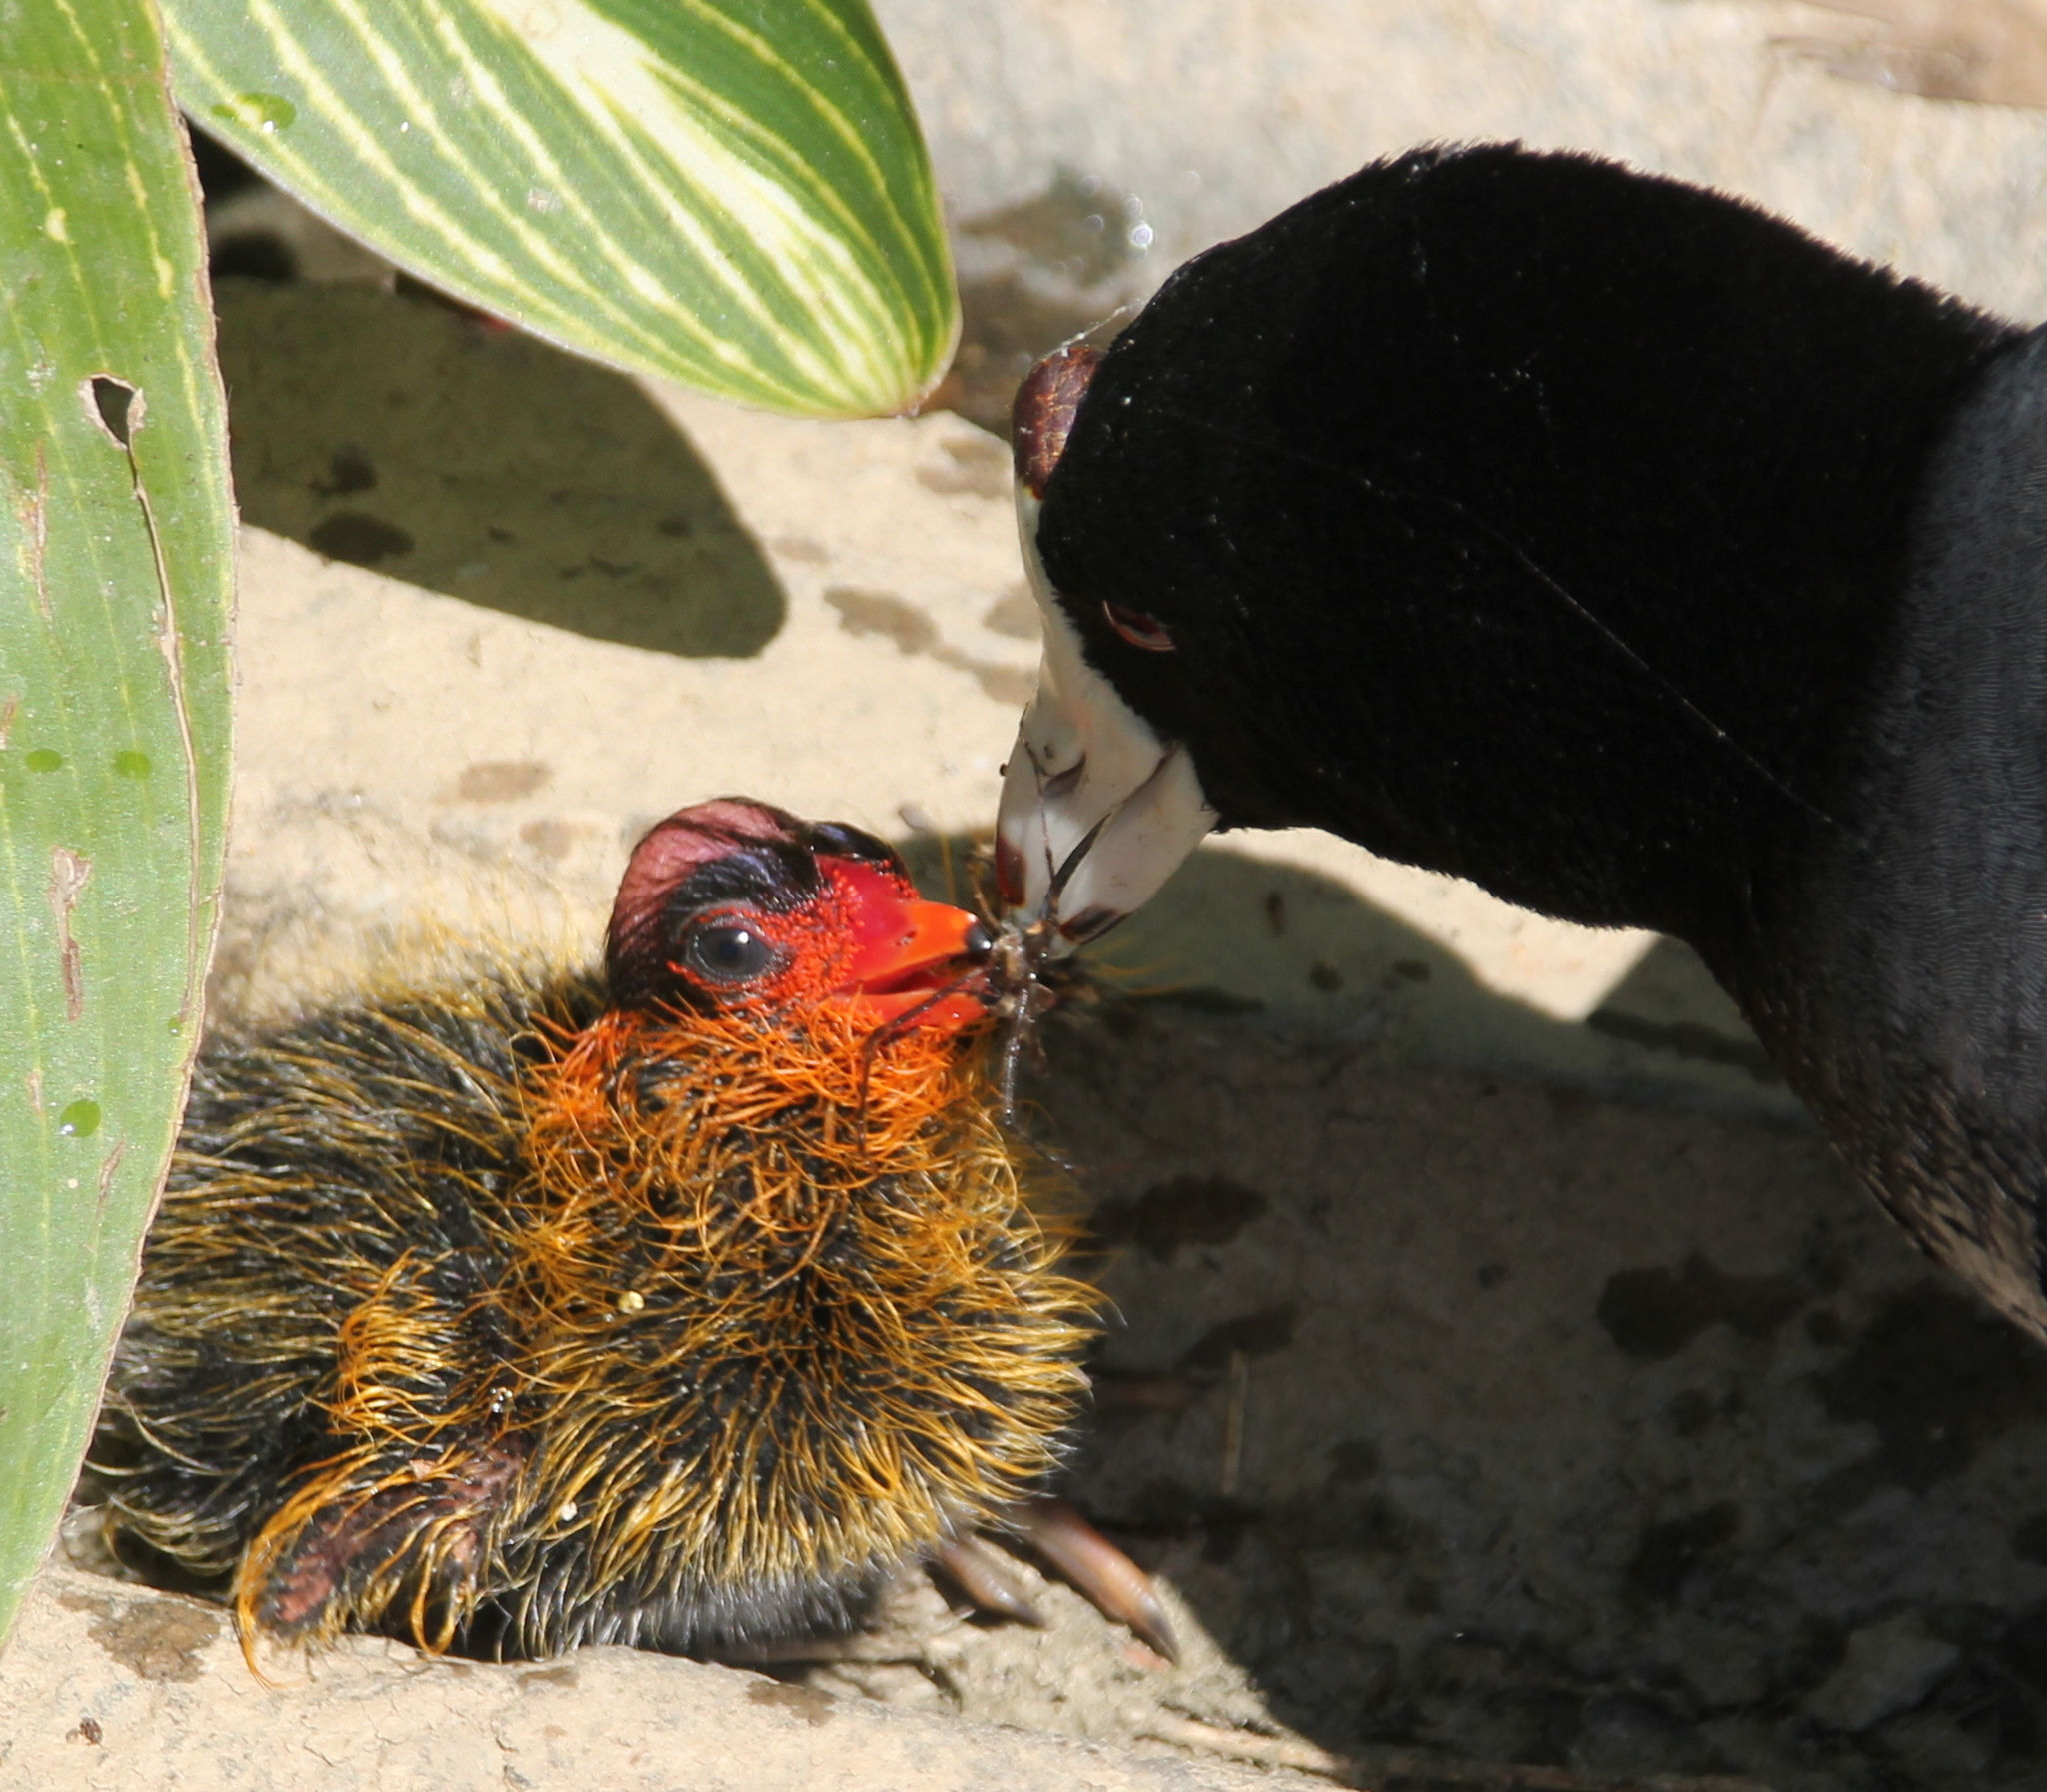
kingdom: Animalia
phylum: Chordata
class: Aves
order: Gruiformes
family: Rallidae
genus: Fulica
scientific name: Fulica americana
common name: American coot
